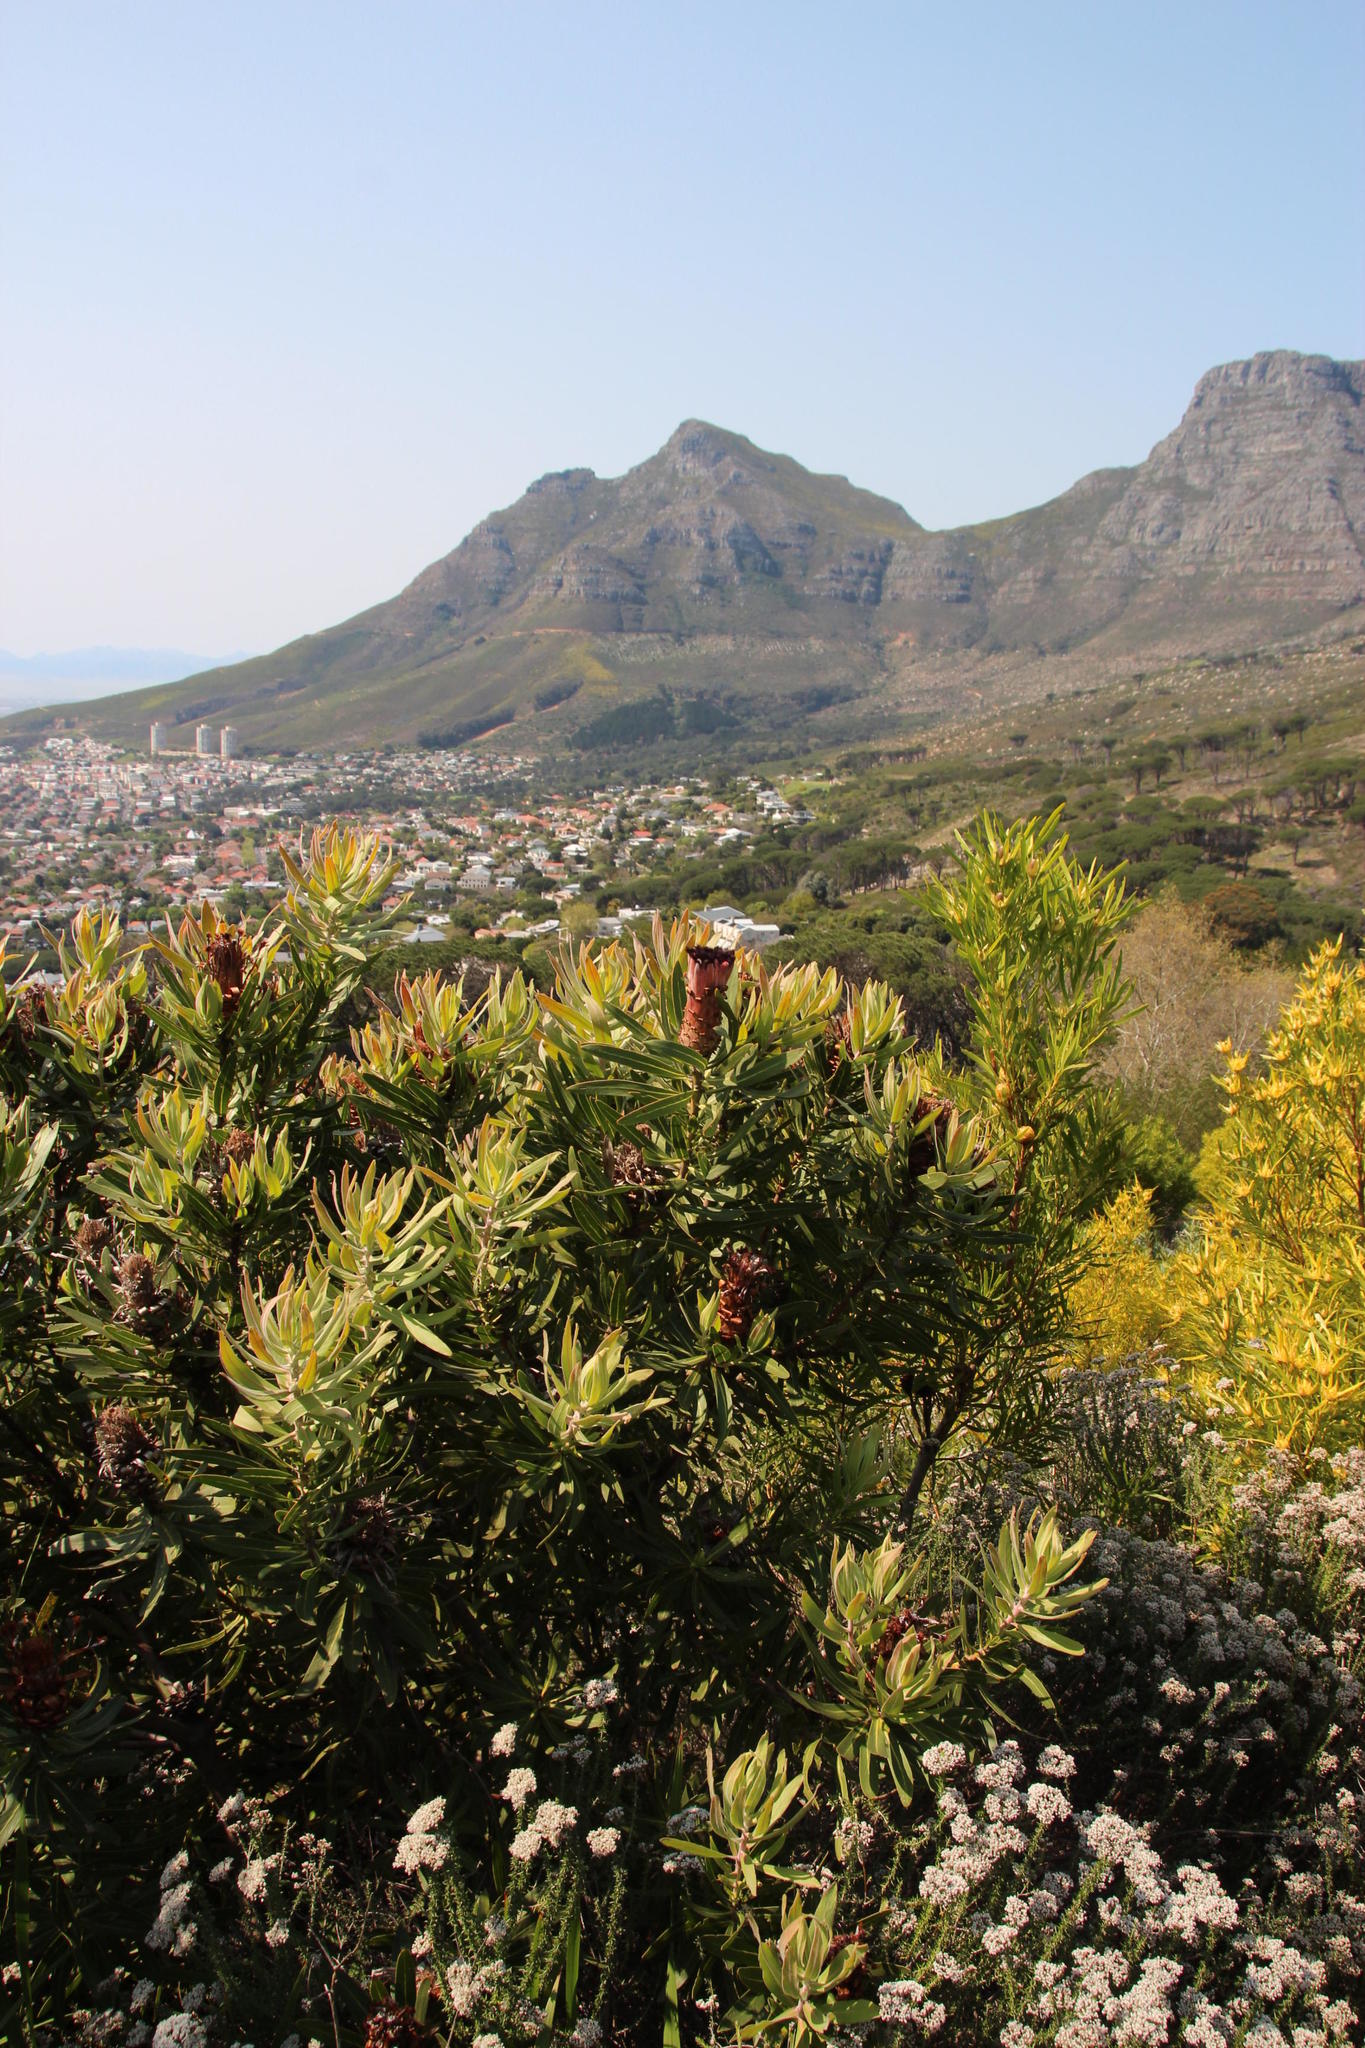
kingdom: Plantae
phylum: Tracheophyta
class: Magnoliopsida
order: Proteales
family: Proteaceae
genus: Protea
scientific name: Protea neriifolia
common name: Blue sugarbush
